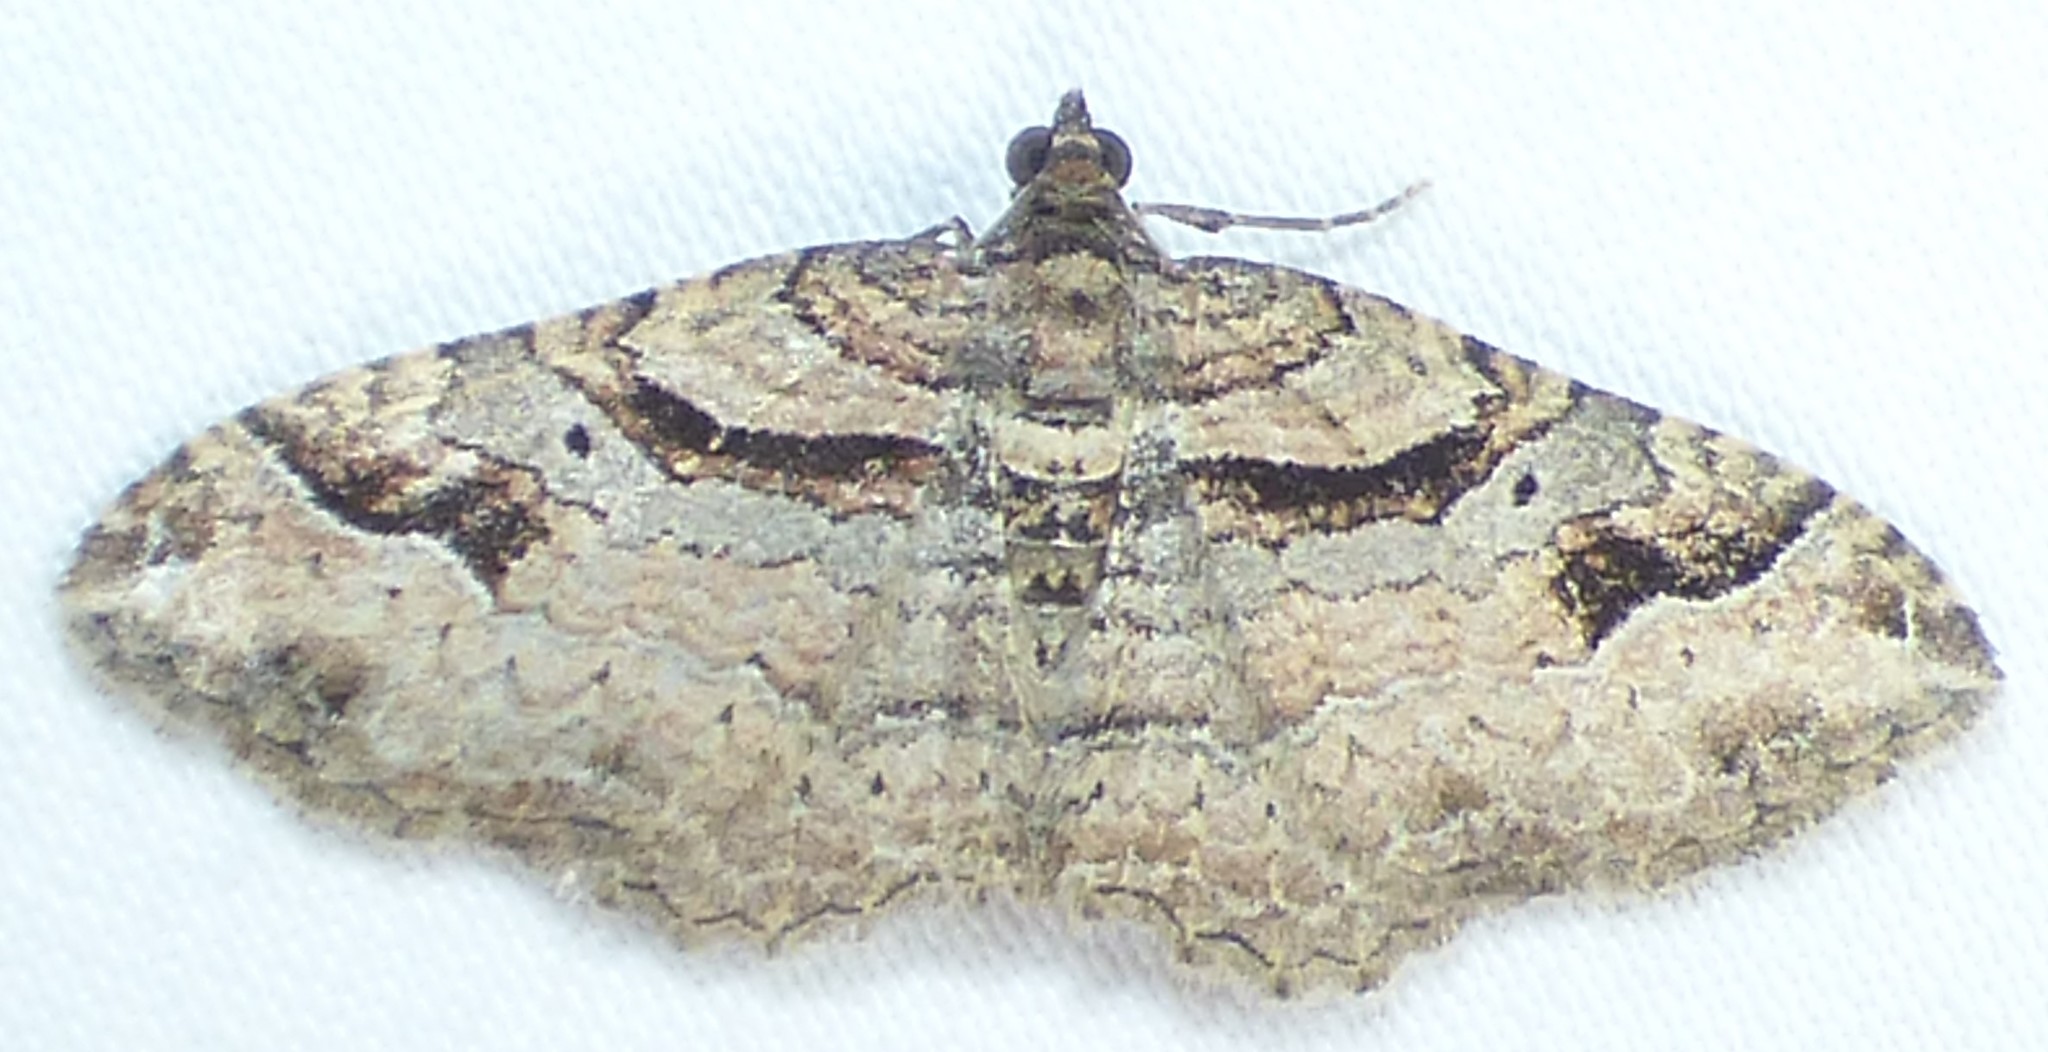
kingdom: Animalia
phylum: Arthropoda
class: Insecta
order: Lepidoptera
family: Geometridae
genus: Costaconvexa
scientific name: Costaconvexa centrostrigaria
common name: Bent-line carpet
